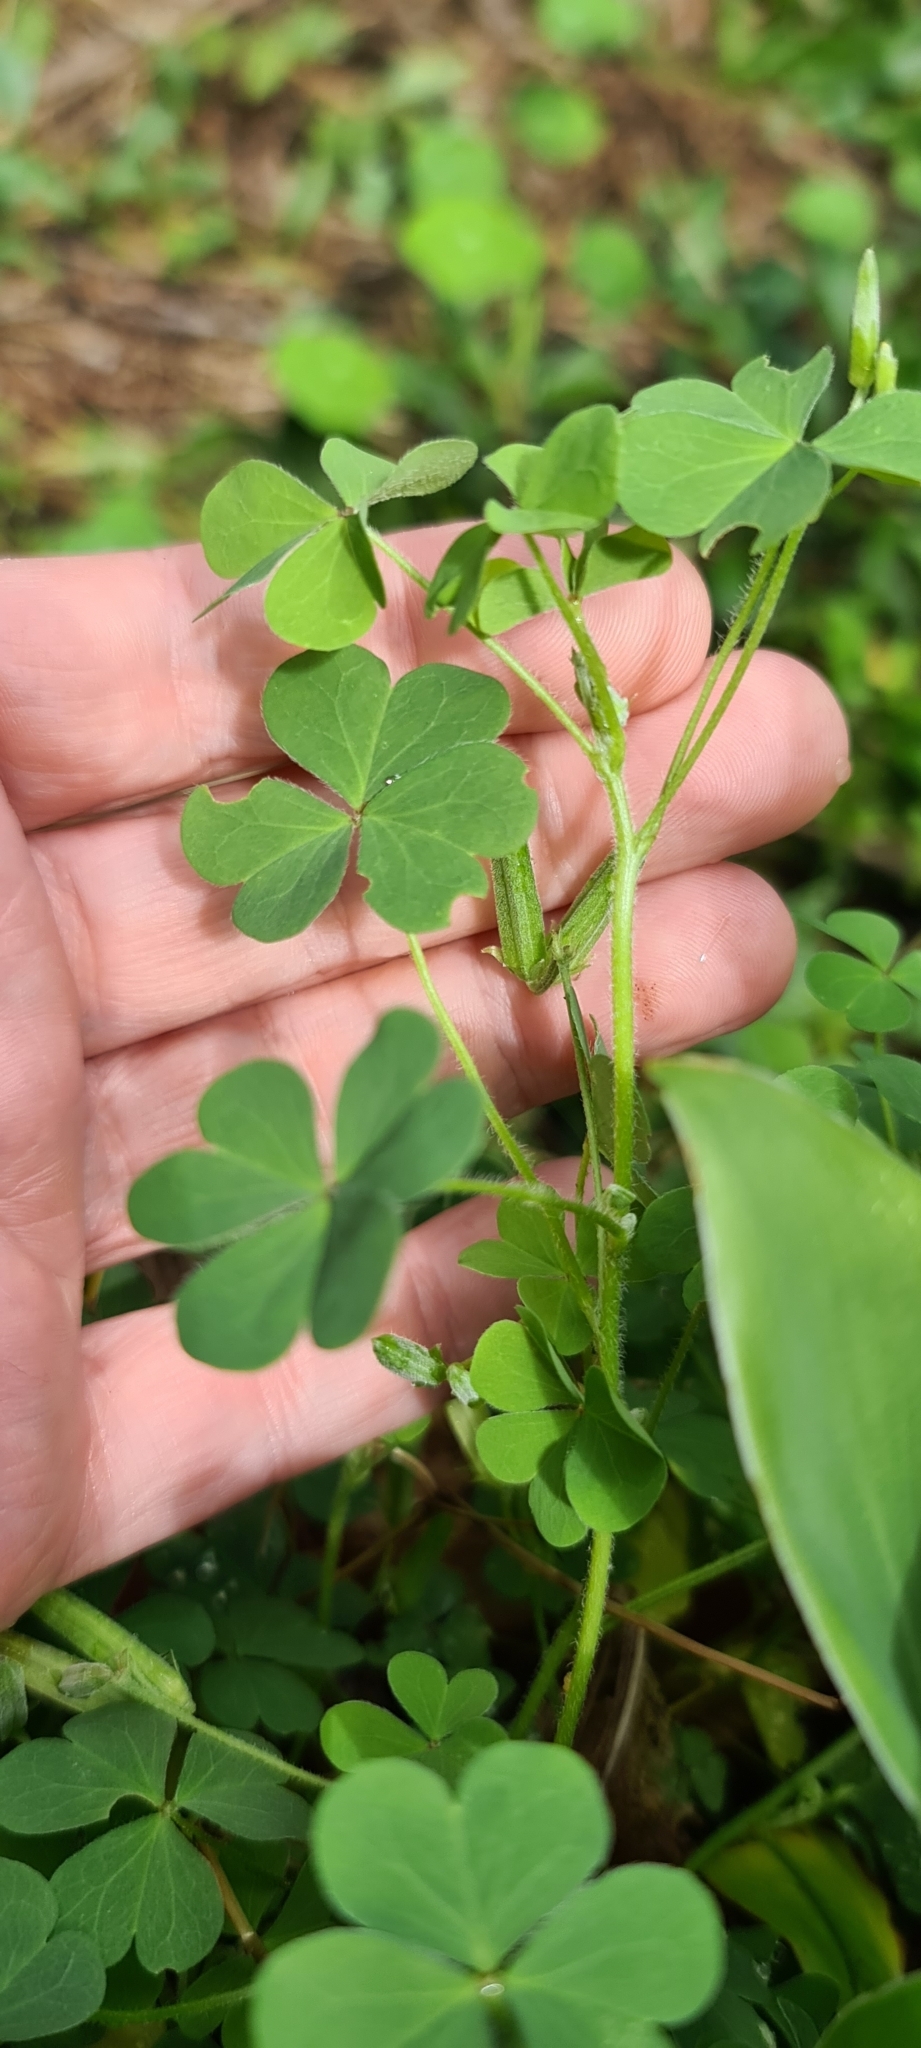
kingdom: Plantae
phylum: Tracheophyta
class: Magnoliopsida
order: Oxalidales
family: Oxalidaceae
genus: Oxalis
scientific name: Oxalis corniculata
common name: Procumbent yellow-sorrel
